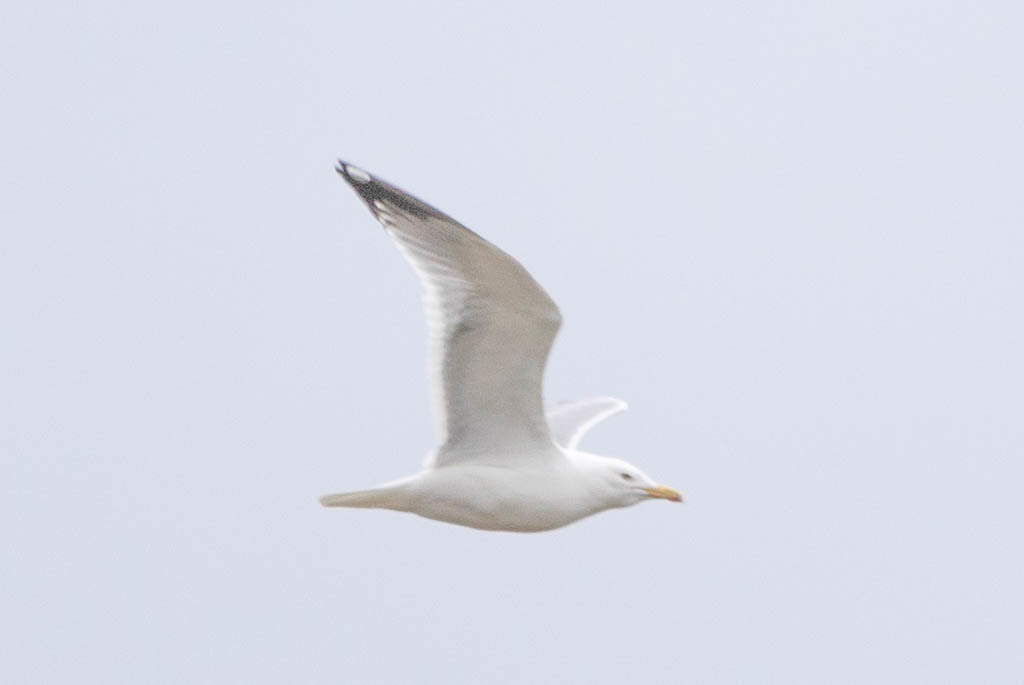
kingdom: Animalia
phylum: Chordata
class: Aves
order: Charadriiformes
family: Laridae
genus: Larus
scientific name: Larus argentatus
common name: Herring gull
